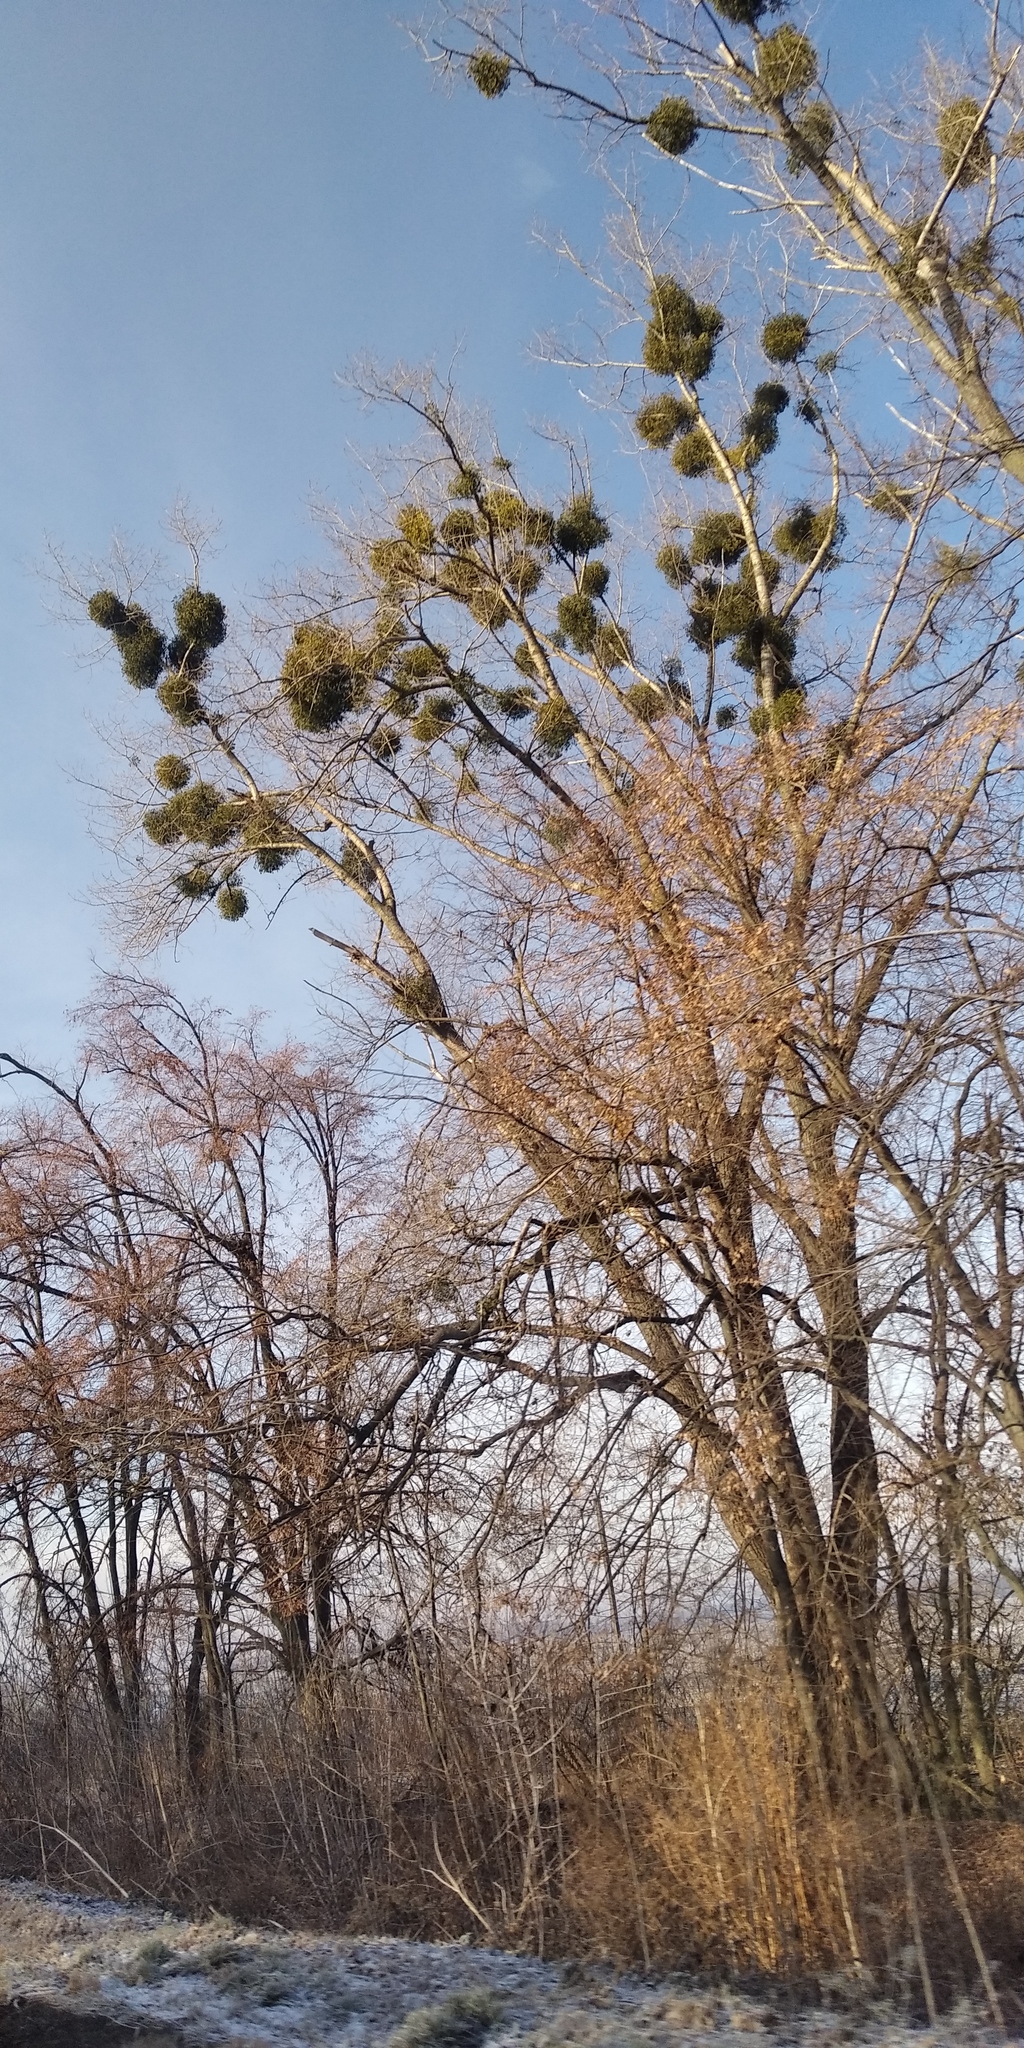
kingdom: Plantae
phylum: Tracheophyta
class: Magnoliopsida
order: Santalales
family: Viscaceae
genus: Viscum
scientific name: Viscum album
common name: Mistletoe
